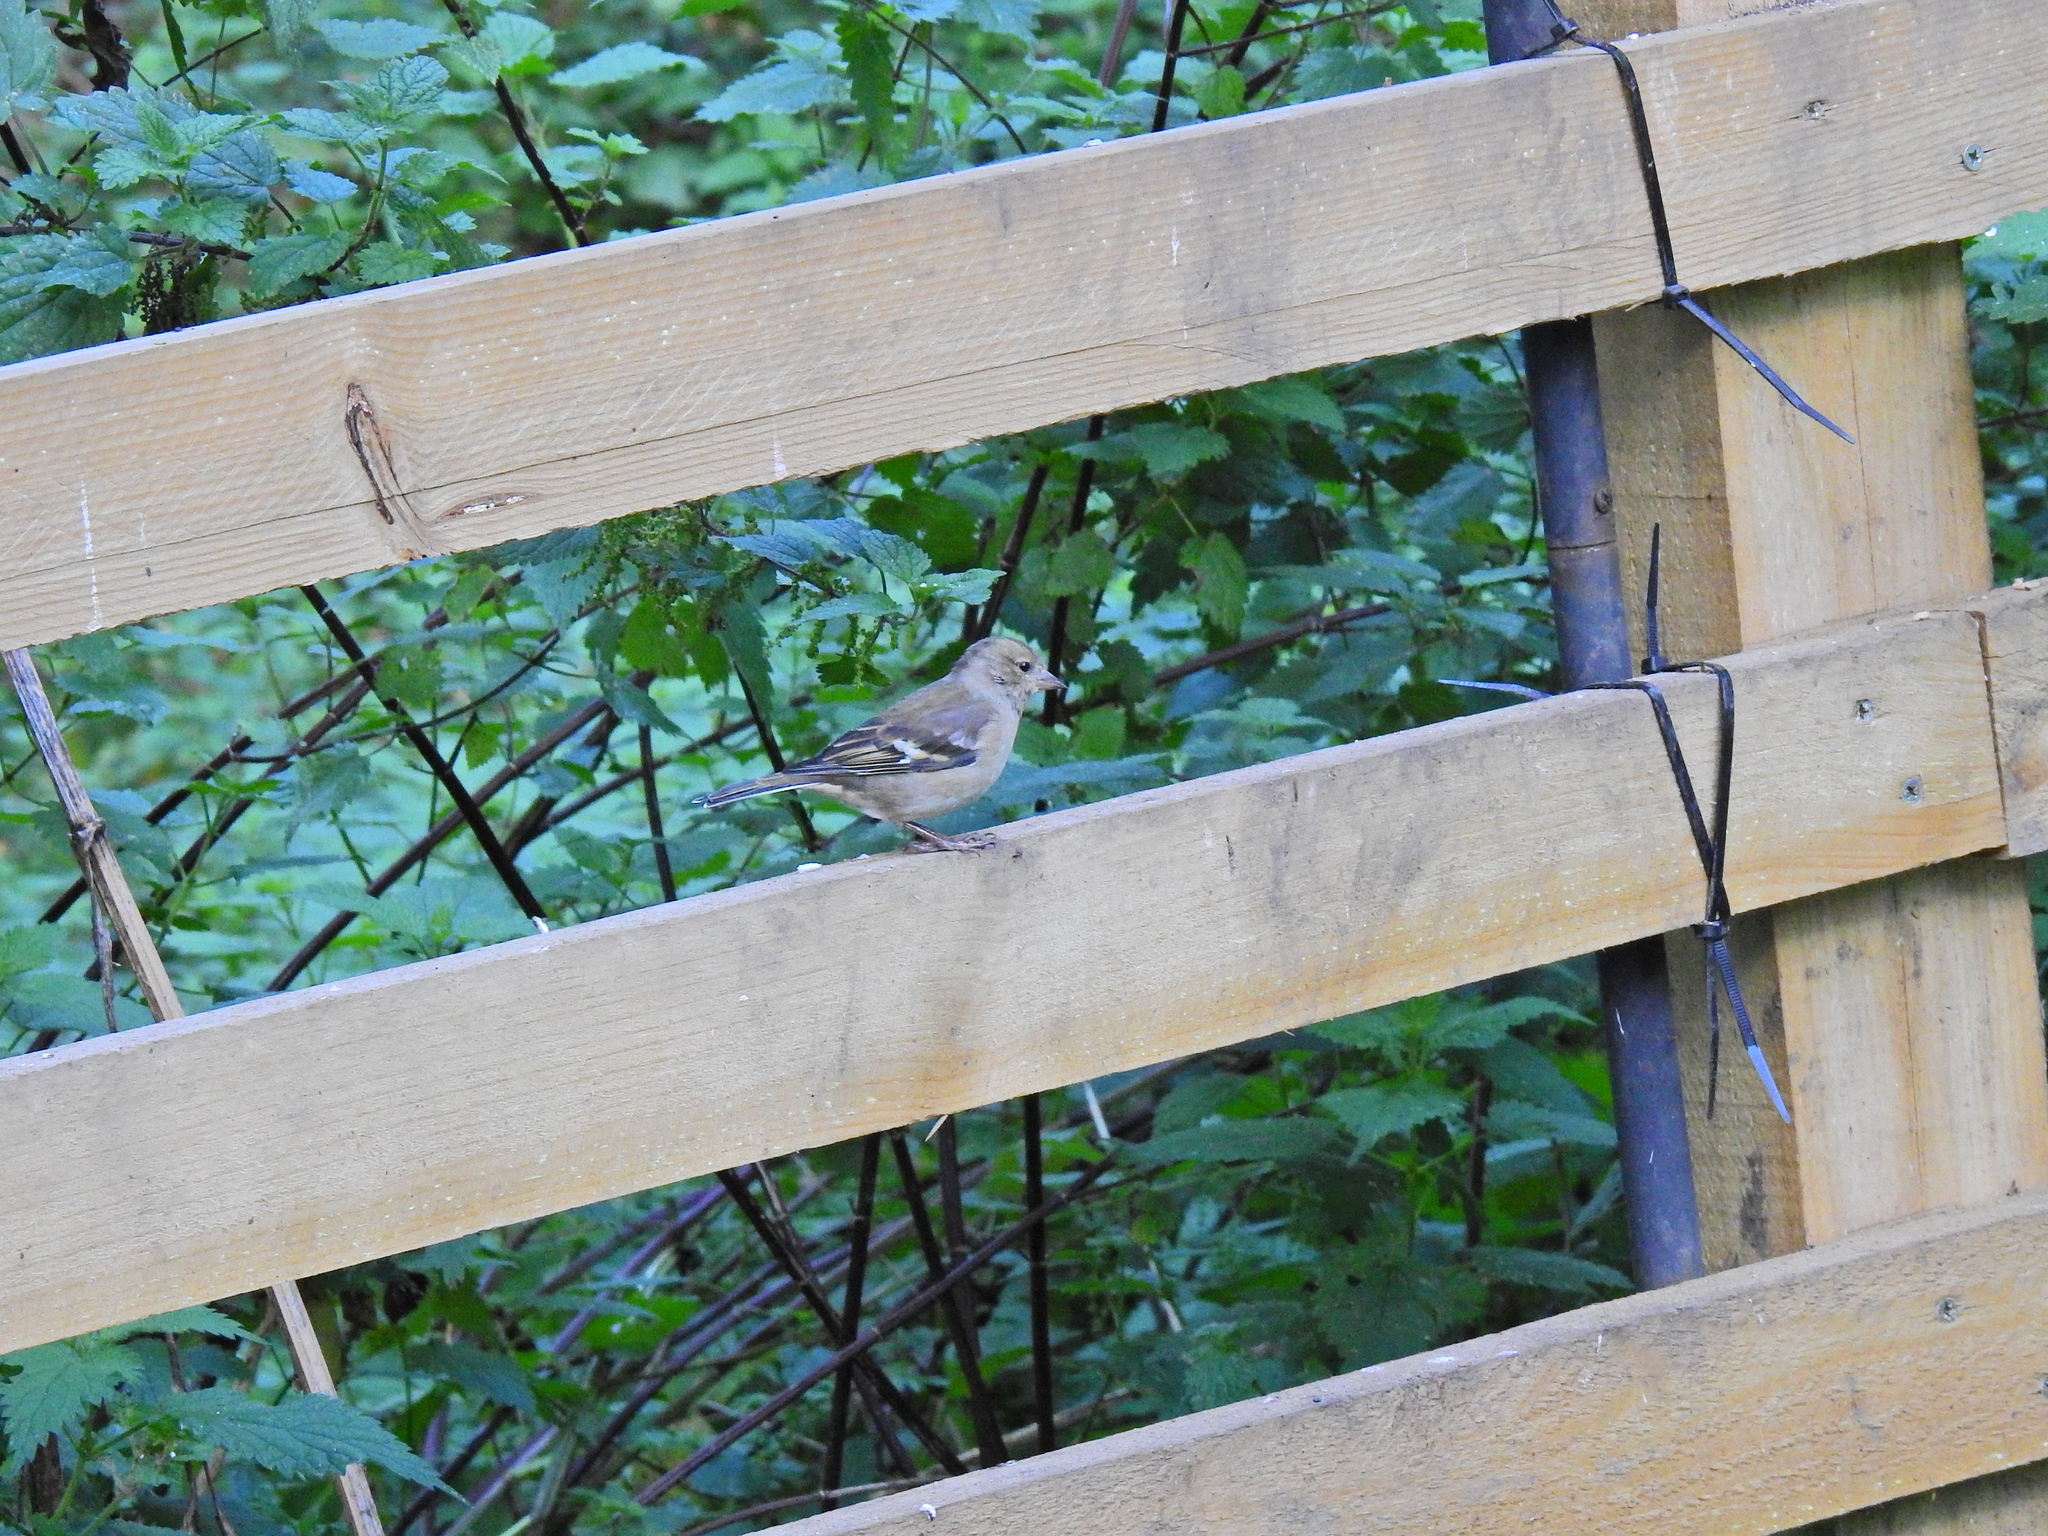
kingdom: Animalia
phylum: Chordata
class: Aves
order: Passeriformes
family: Fringillidae
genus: Fringilla
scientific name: Fringilla coelebs
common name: Common chaffinch
